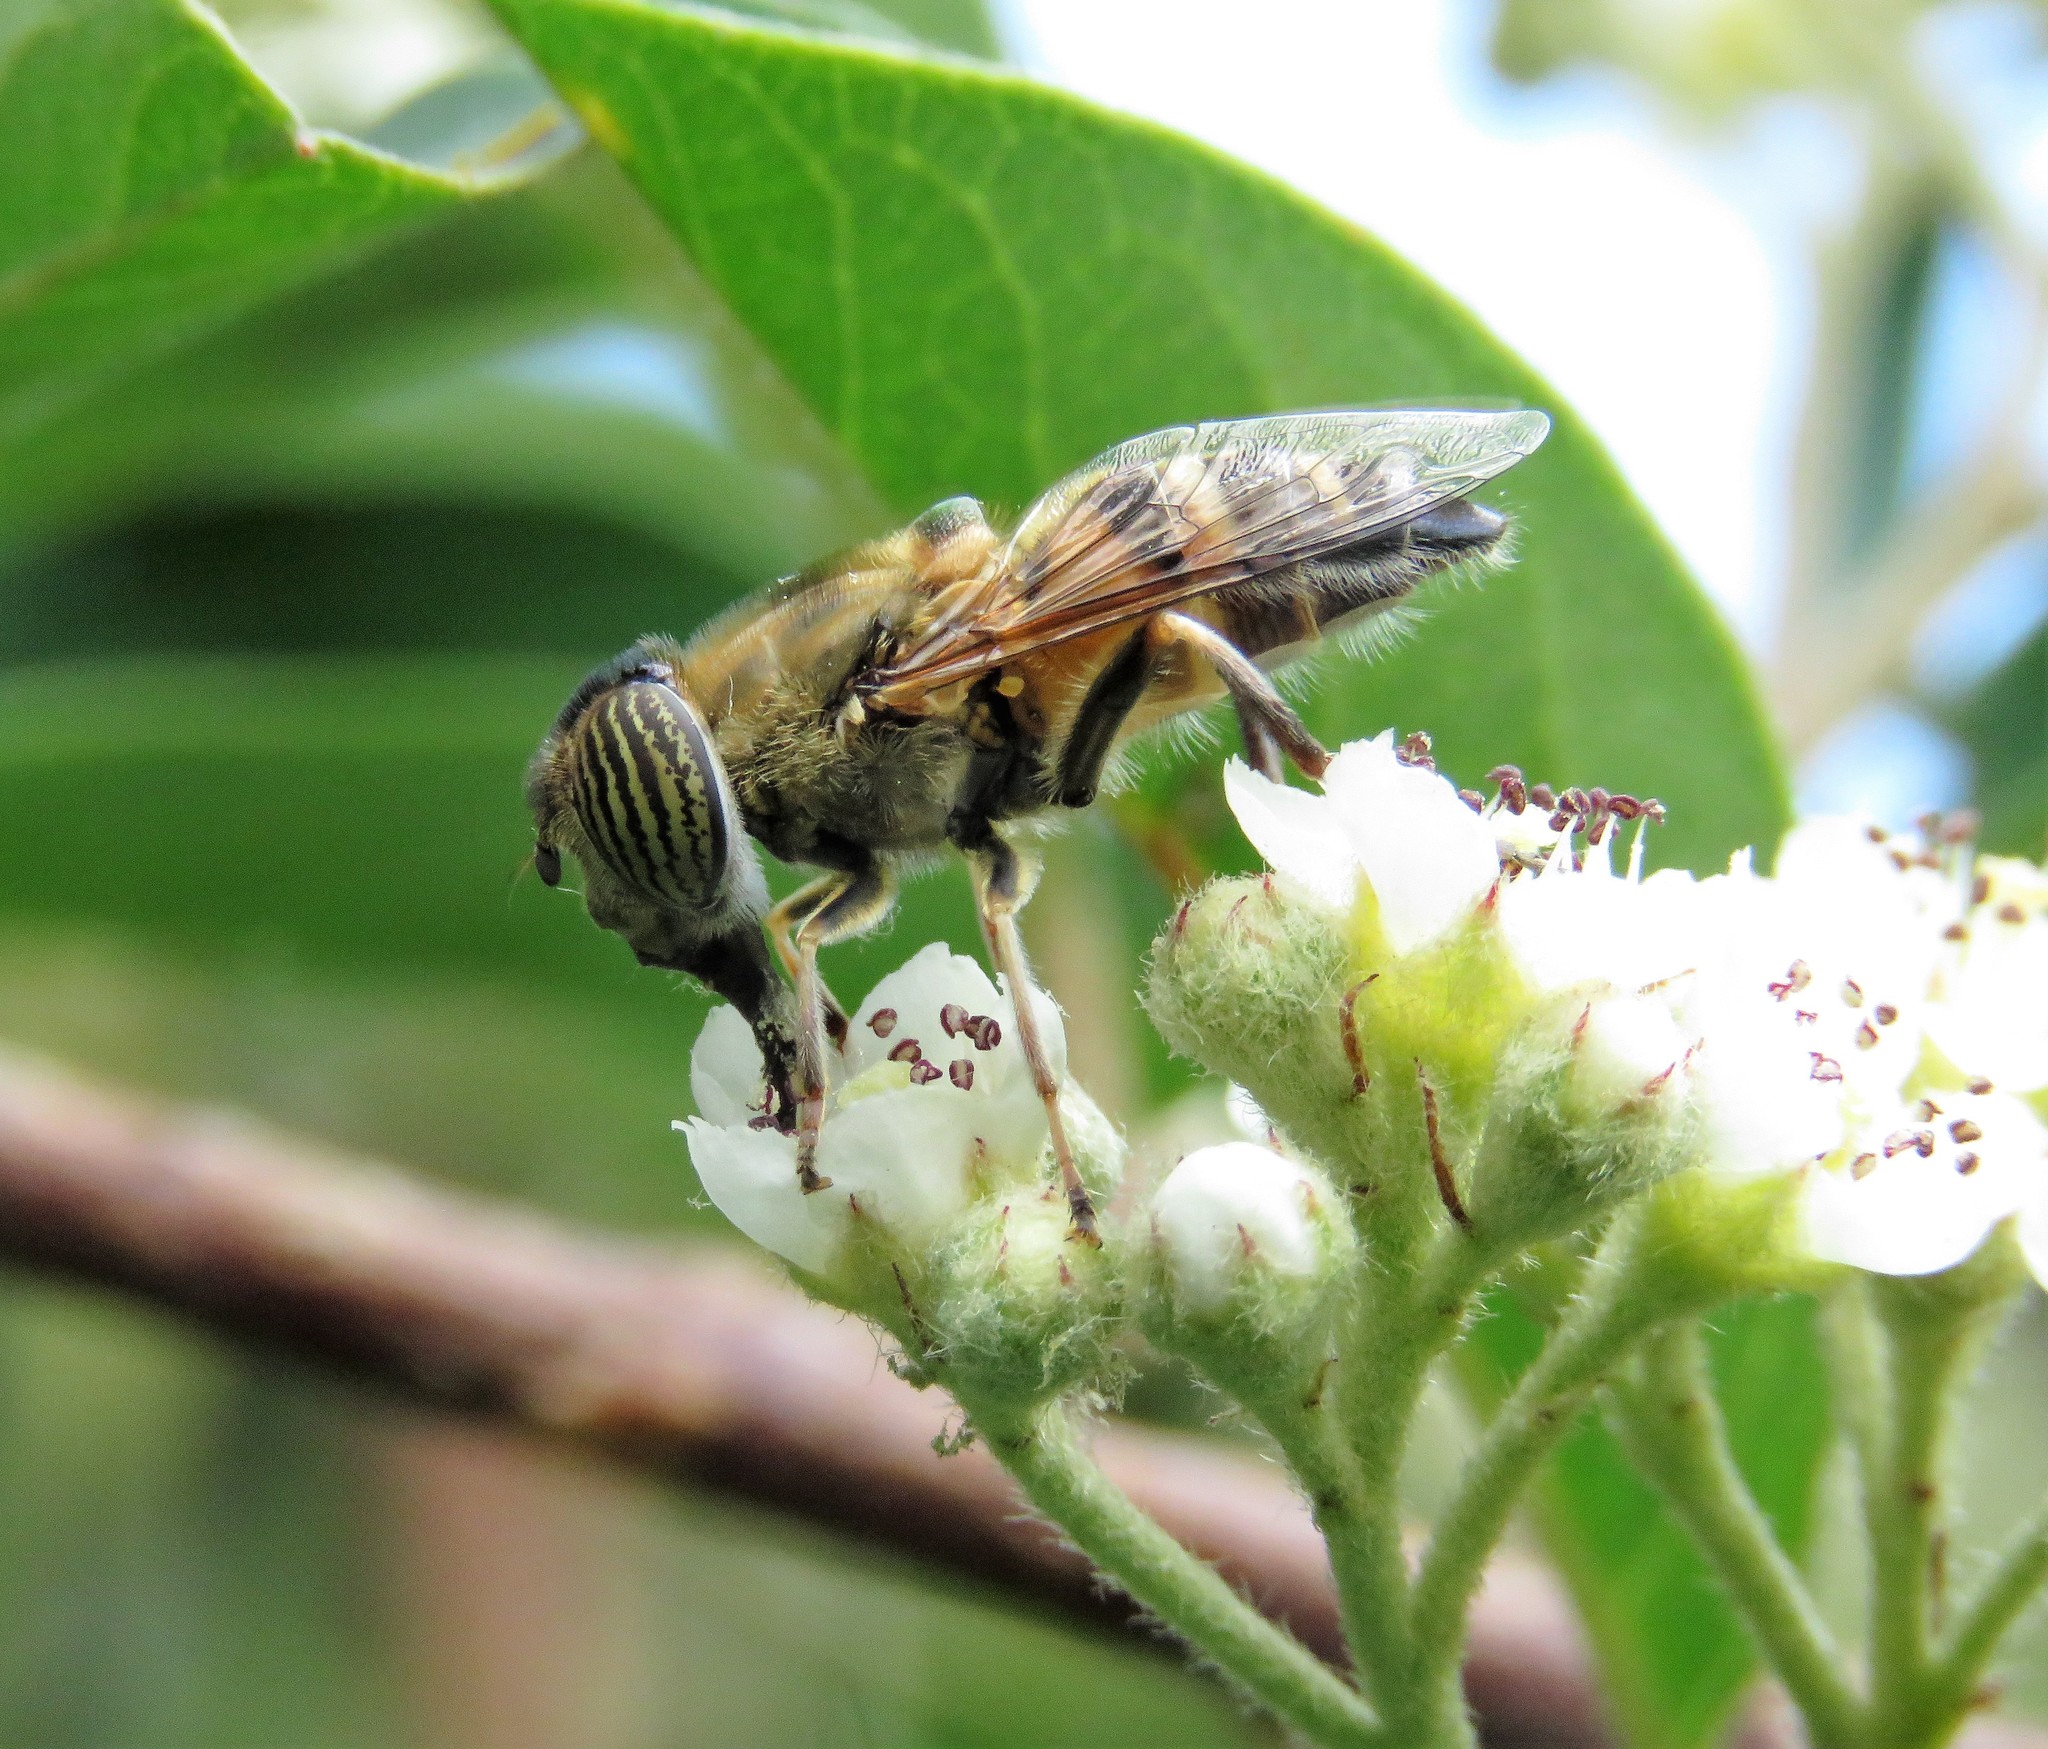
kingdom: Animalia
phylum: Arthropoda
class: Insecta
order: Diptera
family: Syrphidae
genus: Eristalinus
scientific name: Eristalinus taeniops
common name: Syrphid fly
